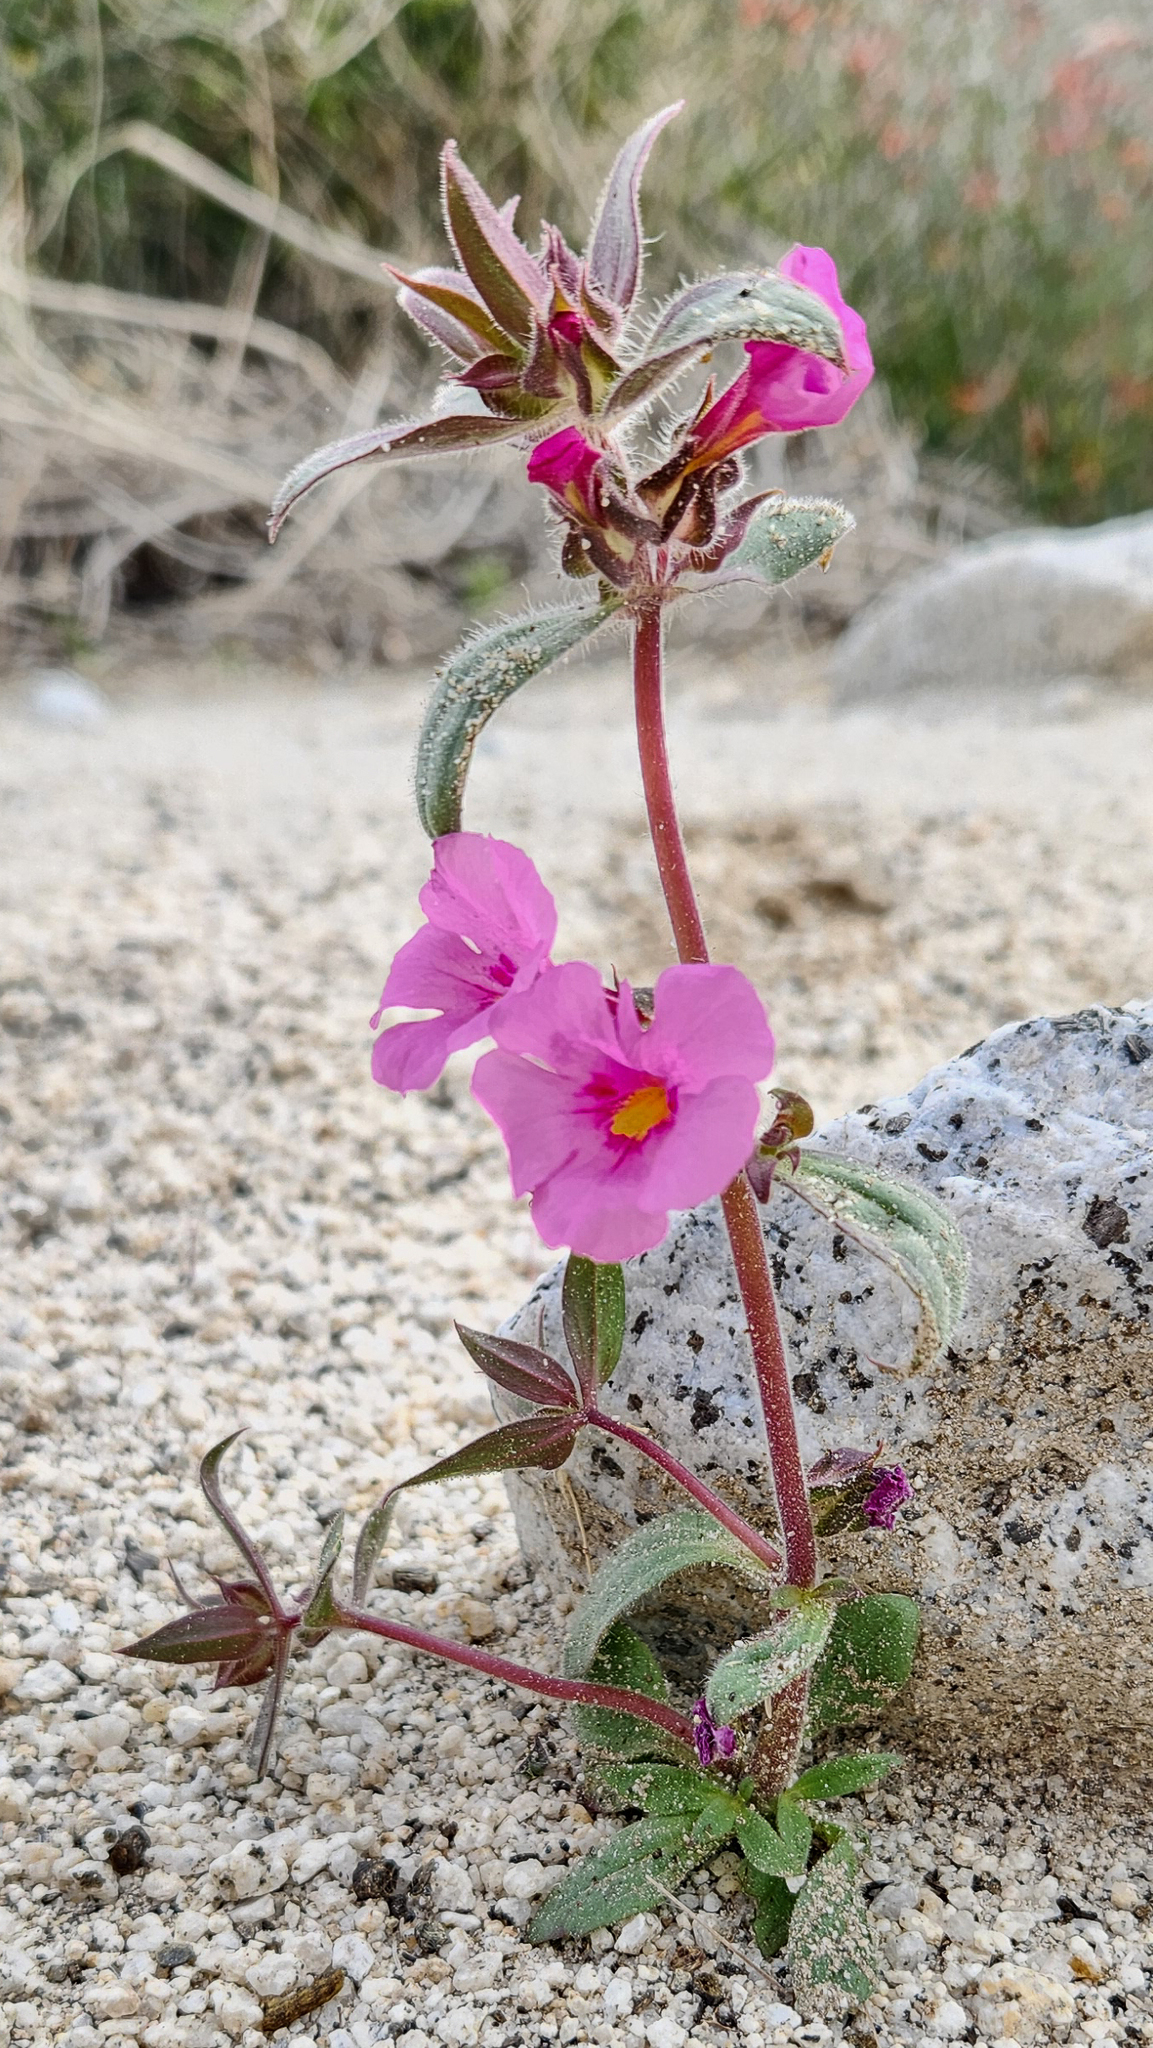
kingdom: Plantae
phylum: Tracheophyta
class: Magnoliopsida
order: Lamiales
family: Phrymaceae
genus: Diplacus
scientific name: Diplacus bigelovii
